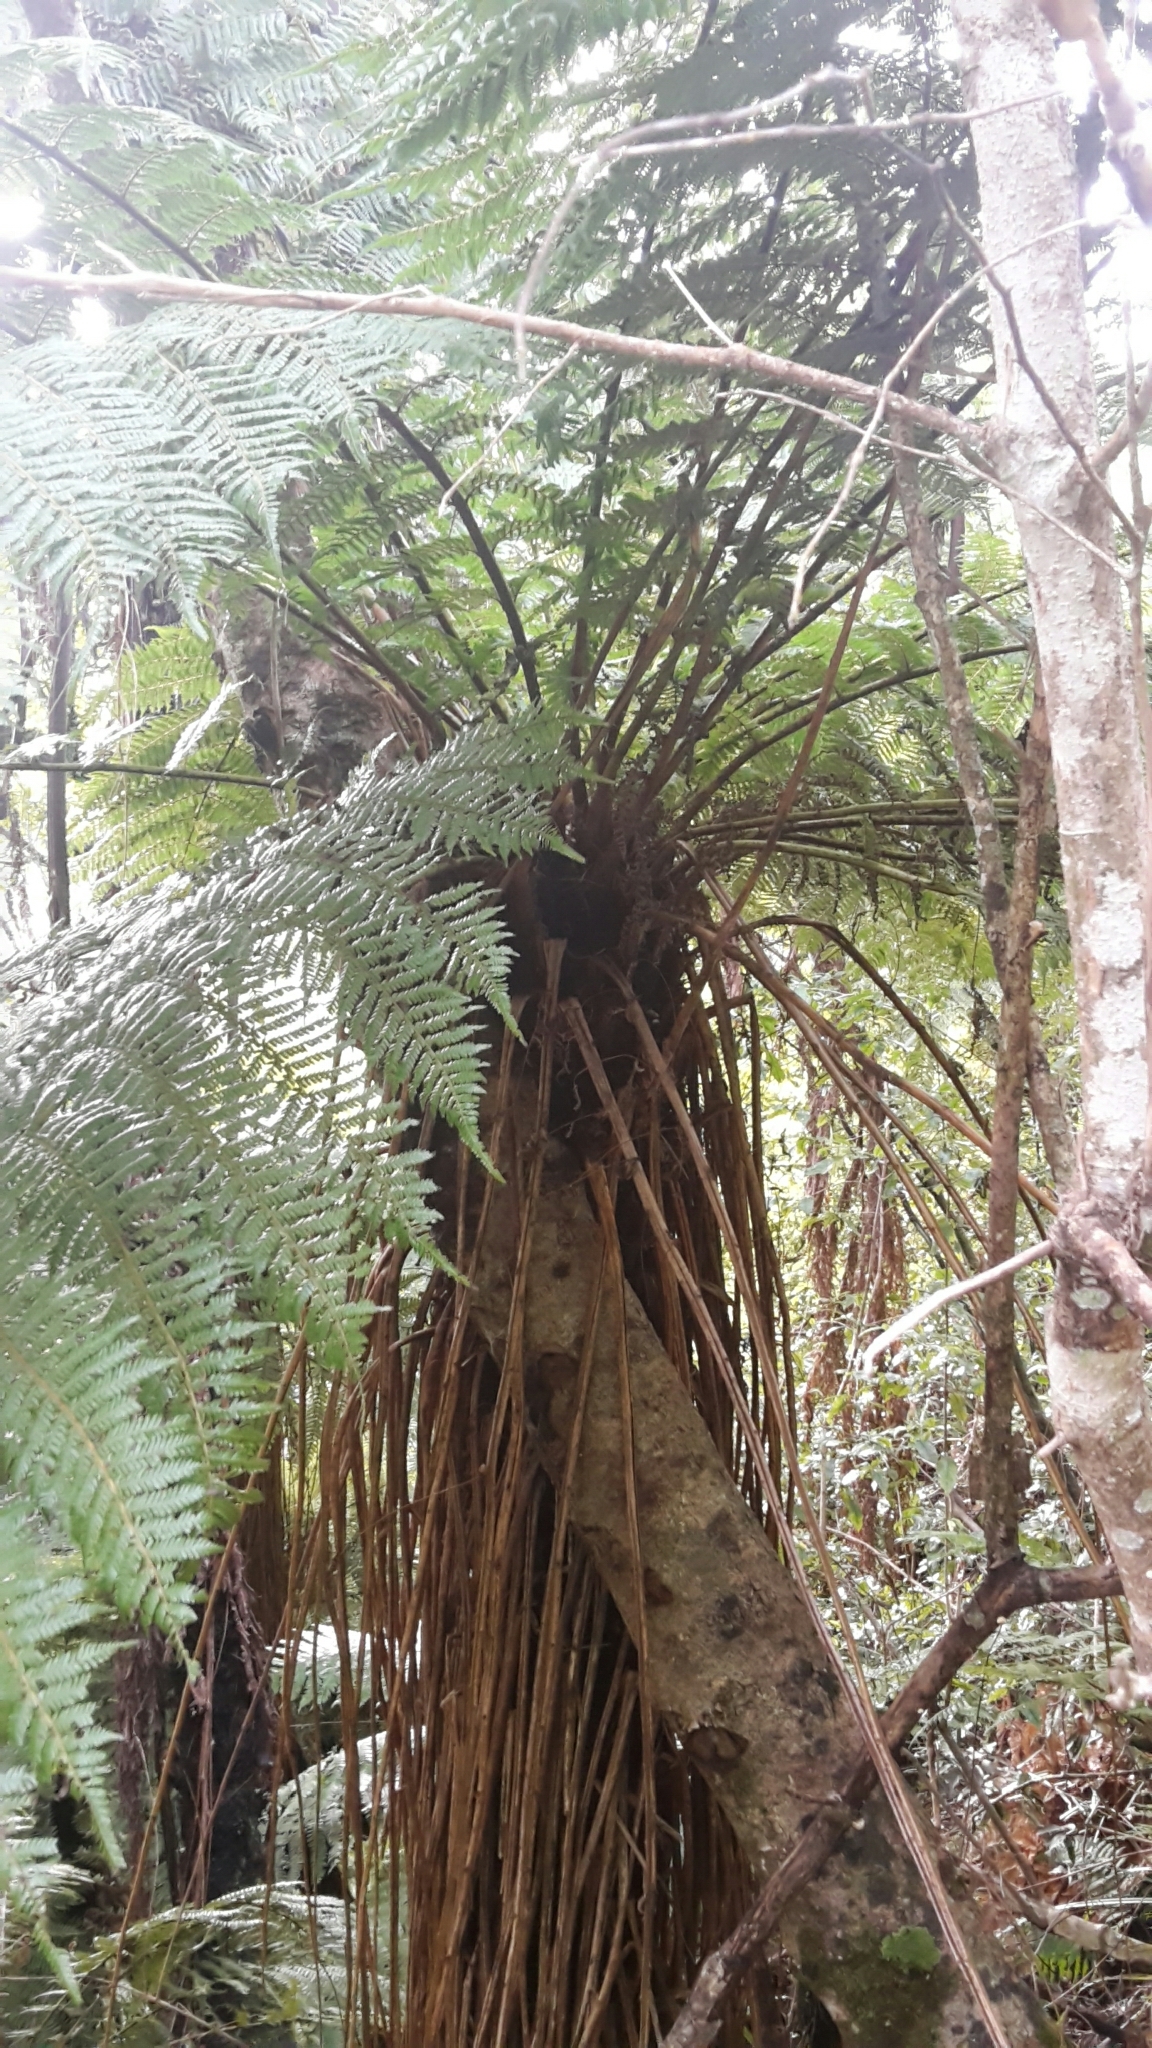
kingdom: Plantae
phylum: Tracheophyta
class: Polypodiopsida
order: Cyatheales
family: Cyatheaceae
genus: Alsophila
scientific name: Alsophila smithii
